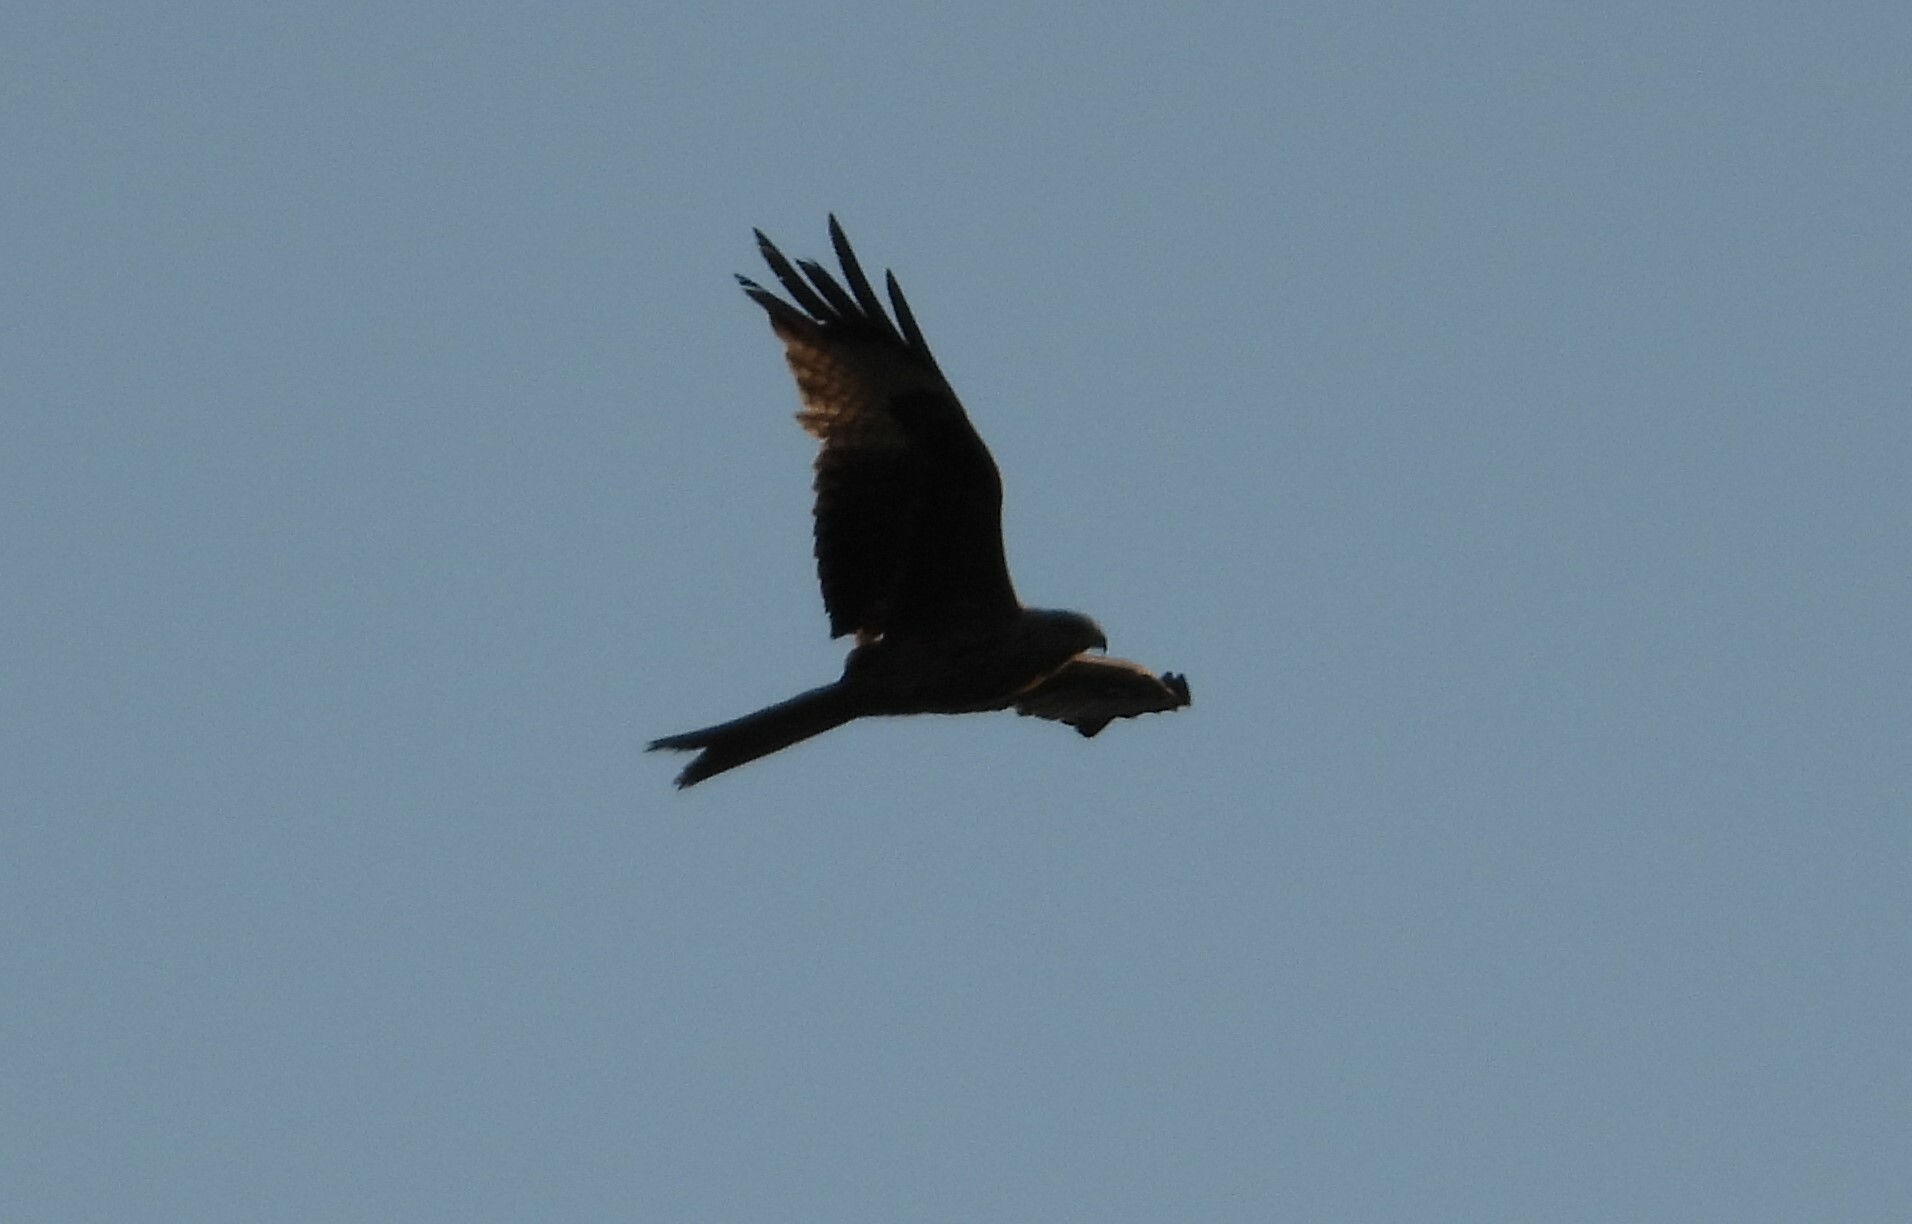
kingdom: Animalia
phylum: Chordata
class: Aves
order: Accipitriformes
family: Accipitridae
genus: Milvus
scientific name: Milvus milvus
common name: Red kite
